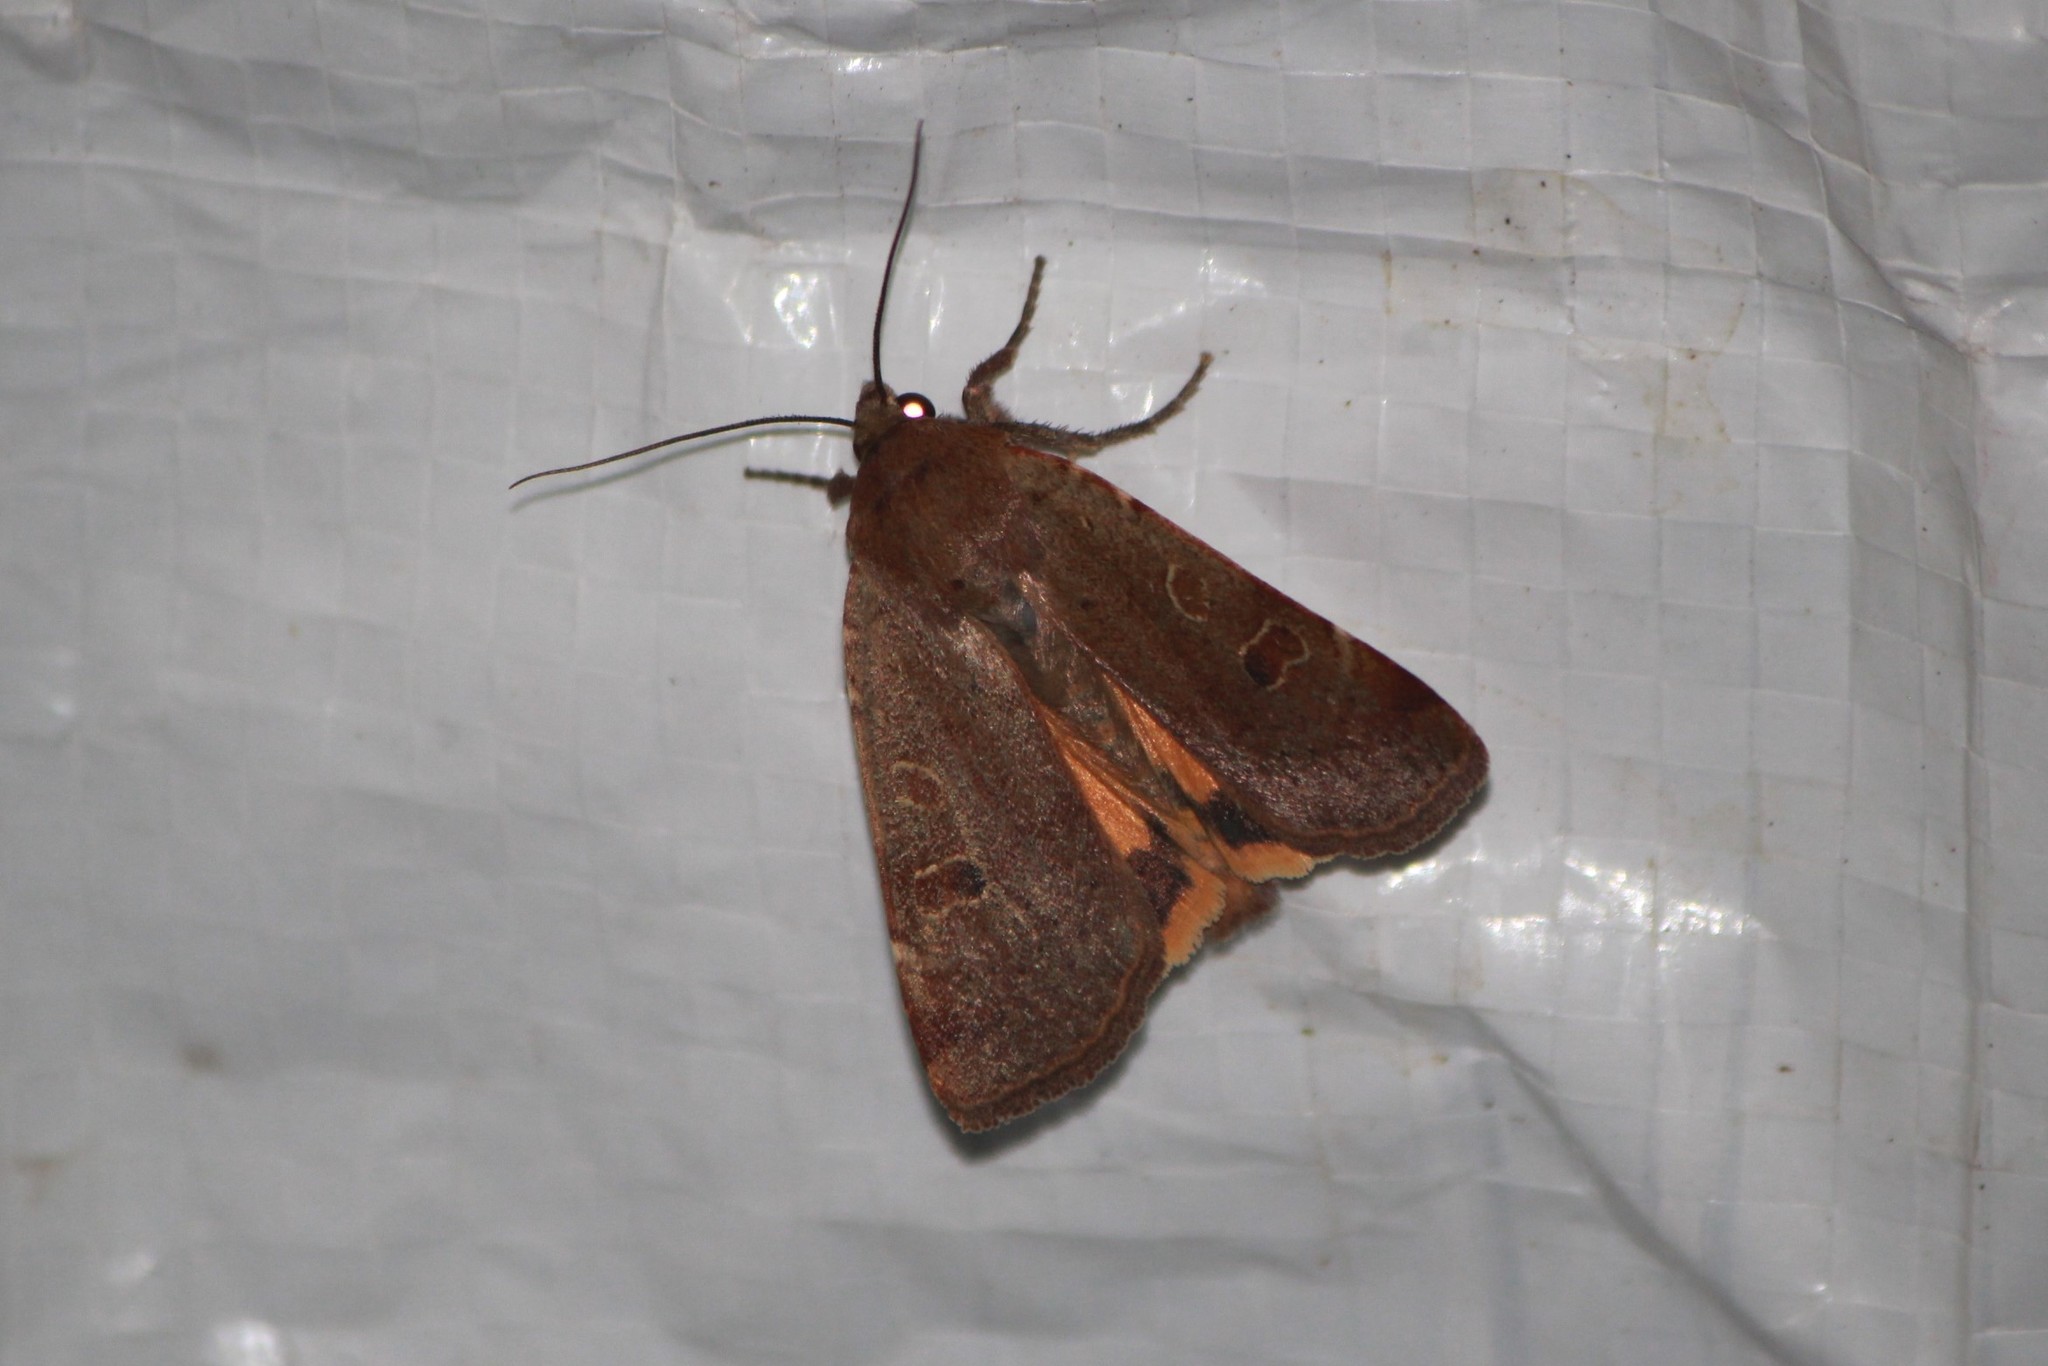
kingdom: Animalia
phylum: Arthropoda
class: Insecta
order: Lepidoptera
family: Noctuidae
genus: Noctua
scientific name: Noctua comes
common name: Lesser yellow underwing
